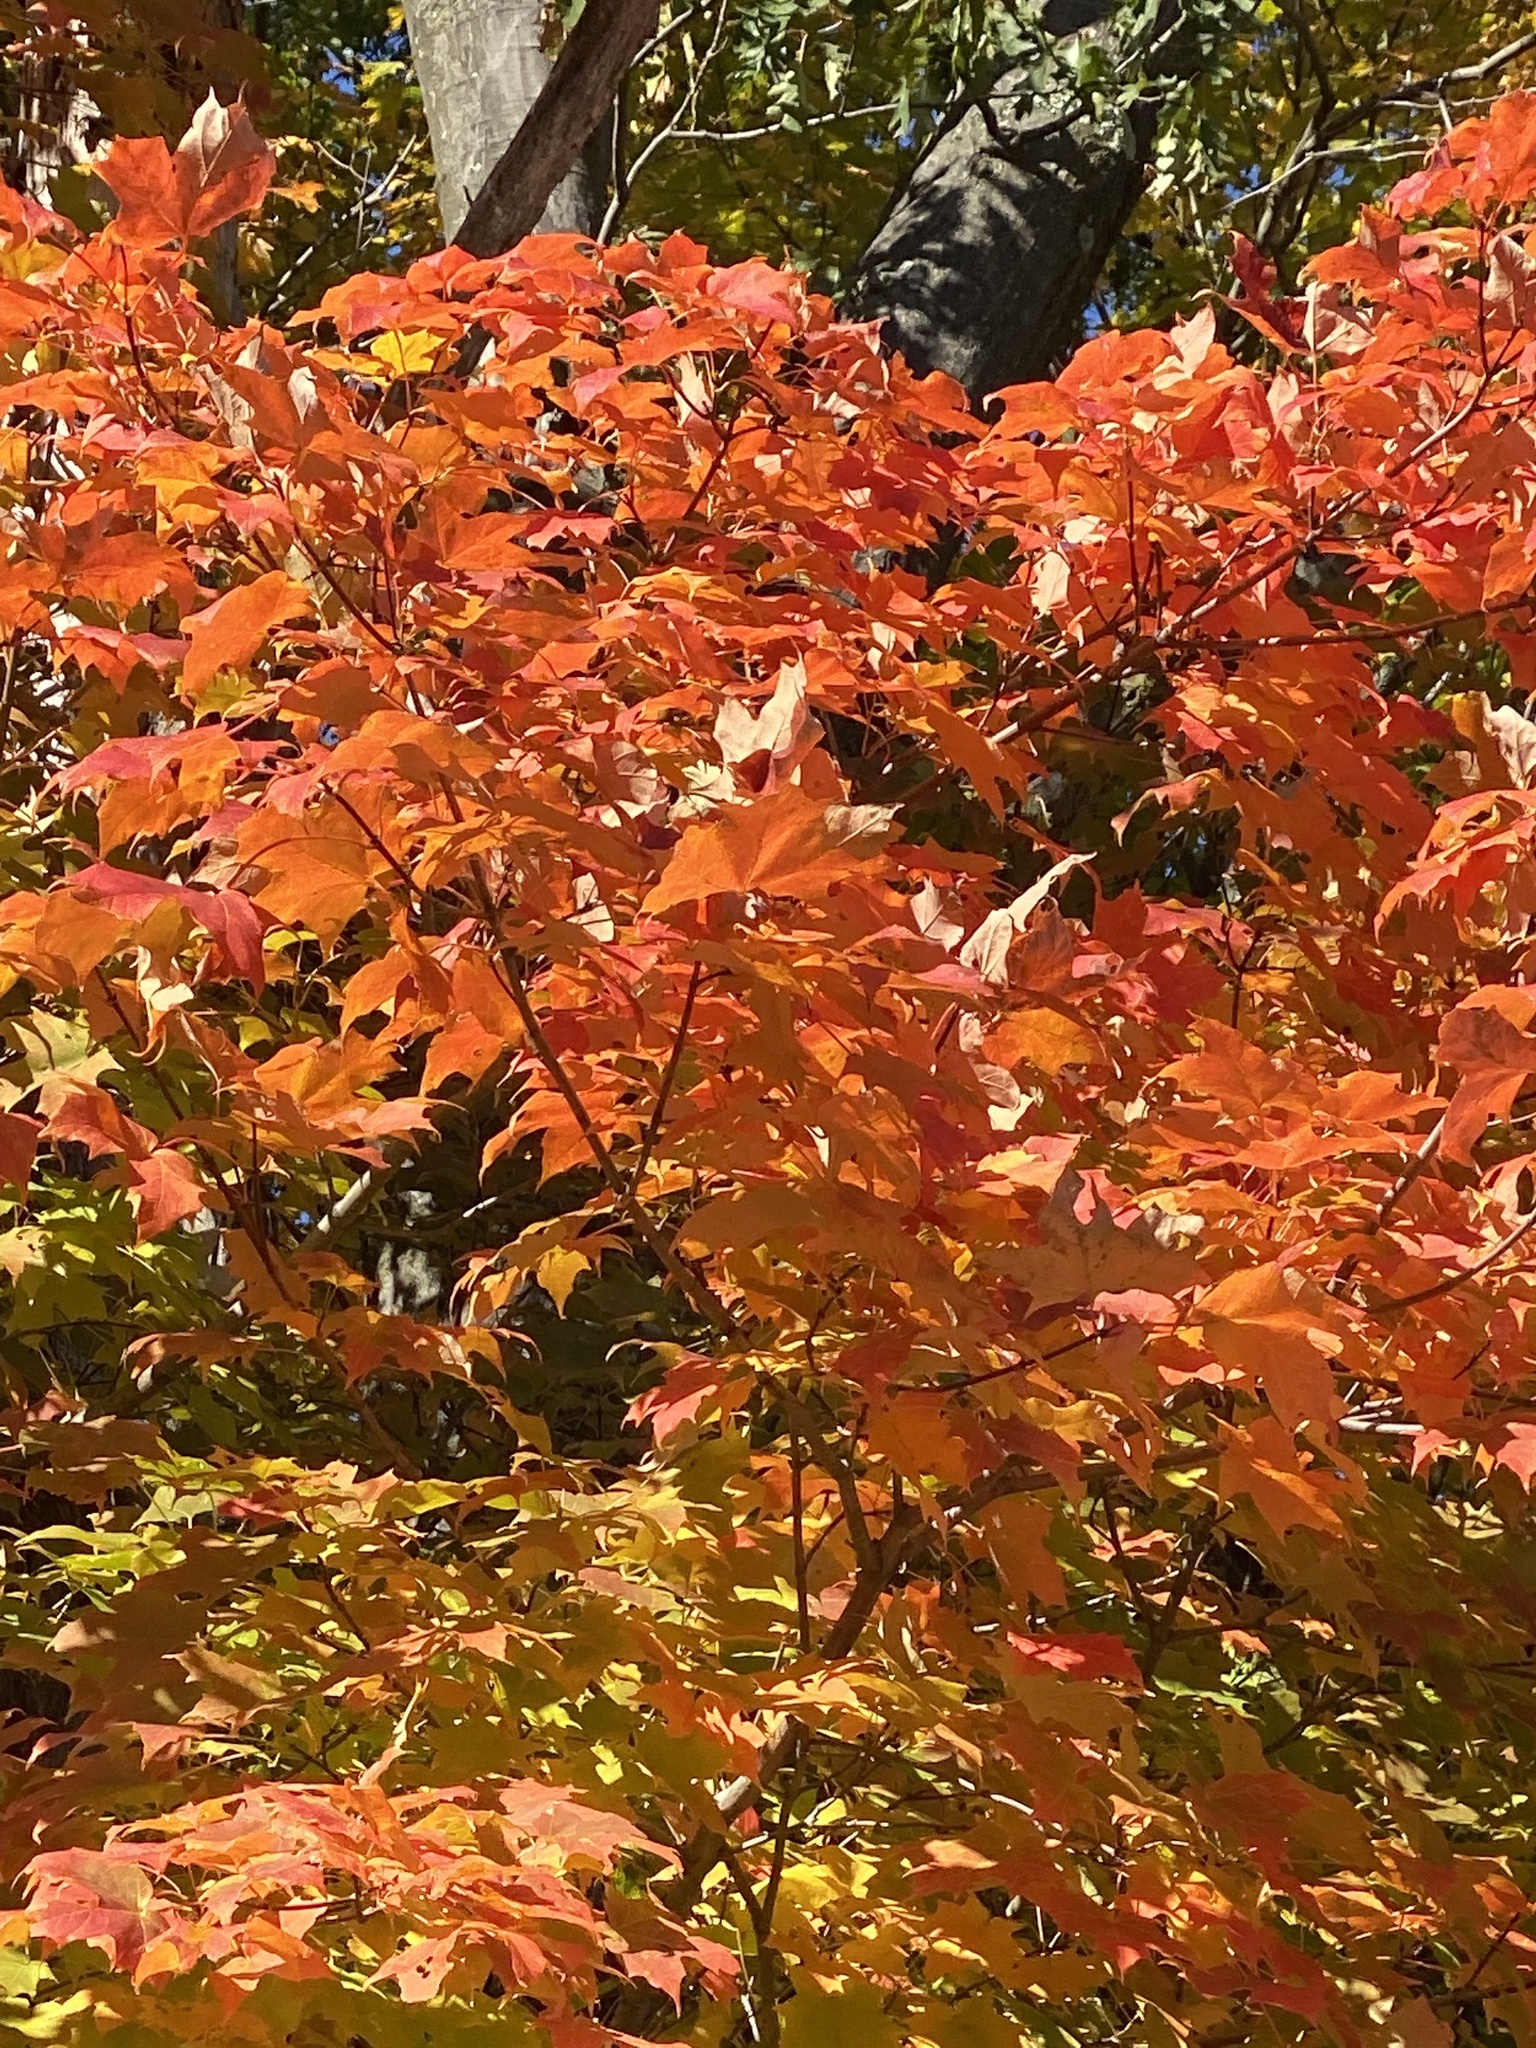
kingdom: Plantae
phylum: Tracheophyta
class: Magnoliopsida
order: Sapindales
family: Sapindaceae
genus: Acer
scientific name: Acer saccharum
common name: Sugar maple
